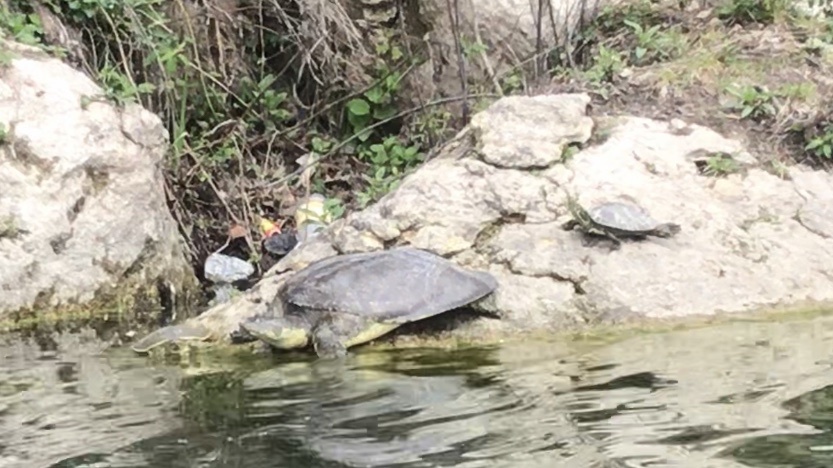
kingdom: Animalia
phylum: Chordata
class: Testudines
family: Trionychidae
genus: Apalone
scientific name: Apalone spinifera
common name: Spiny softshell turtle
